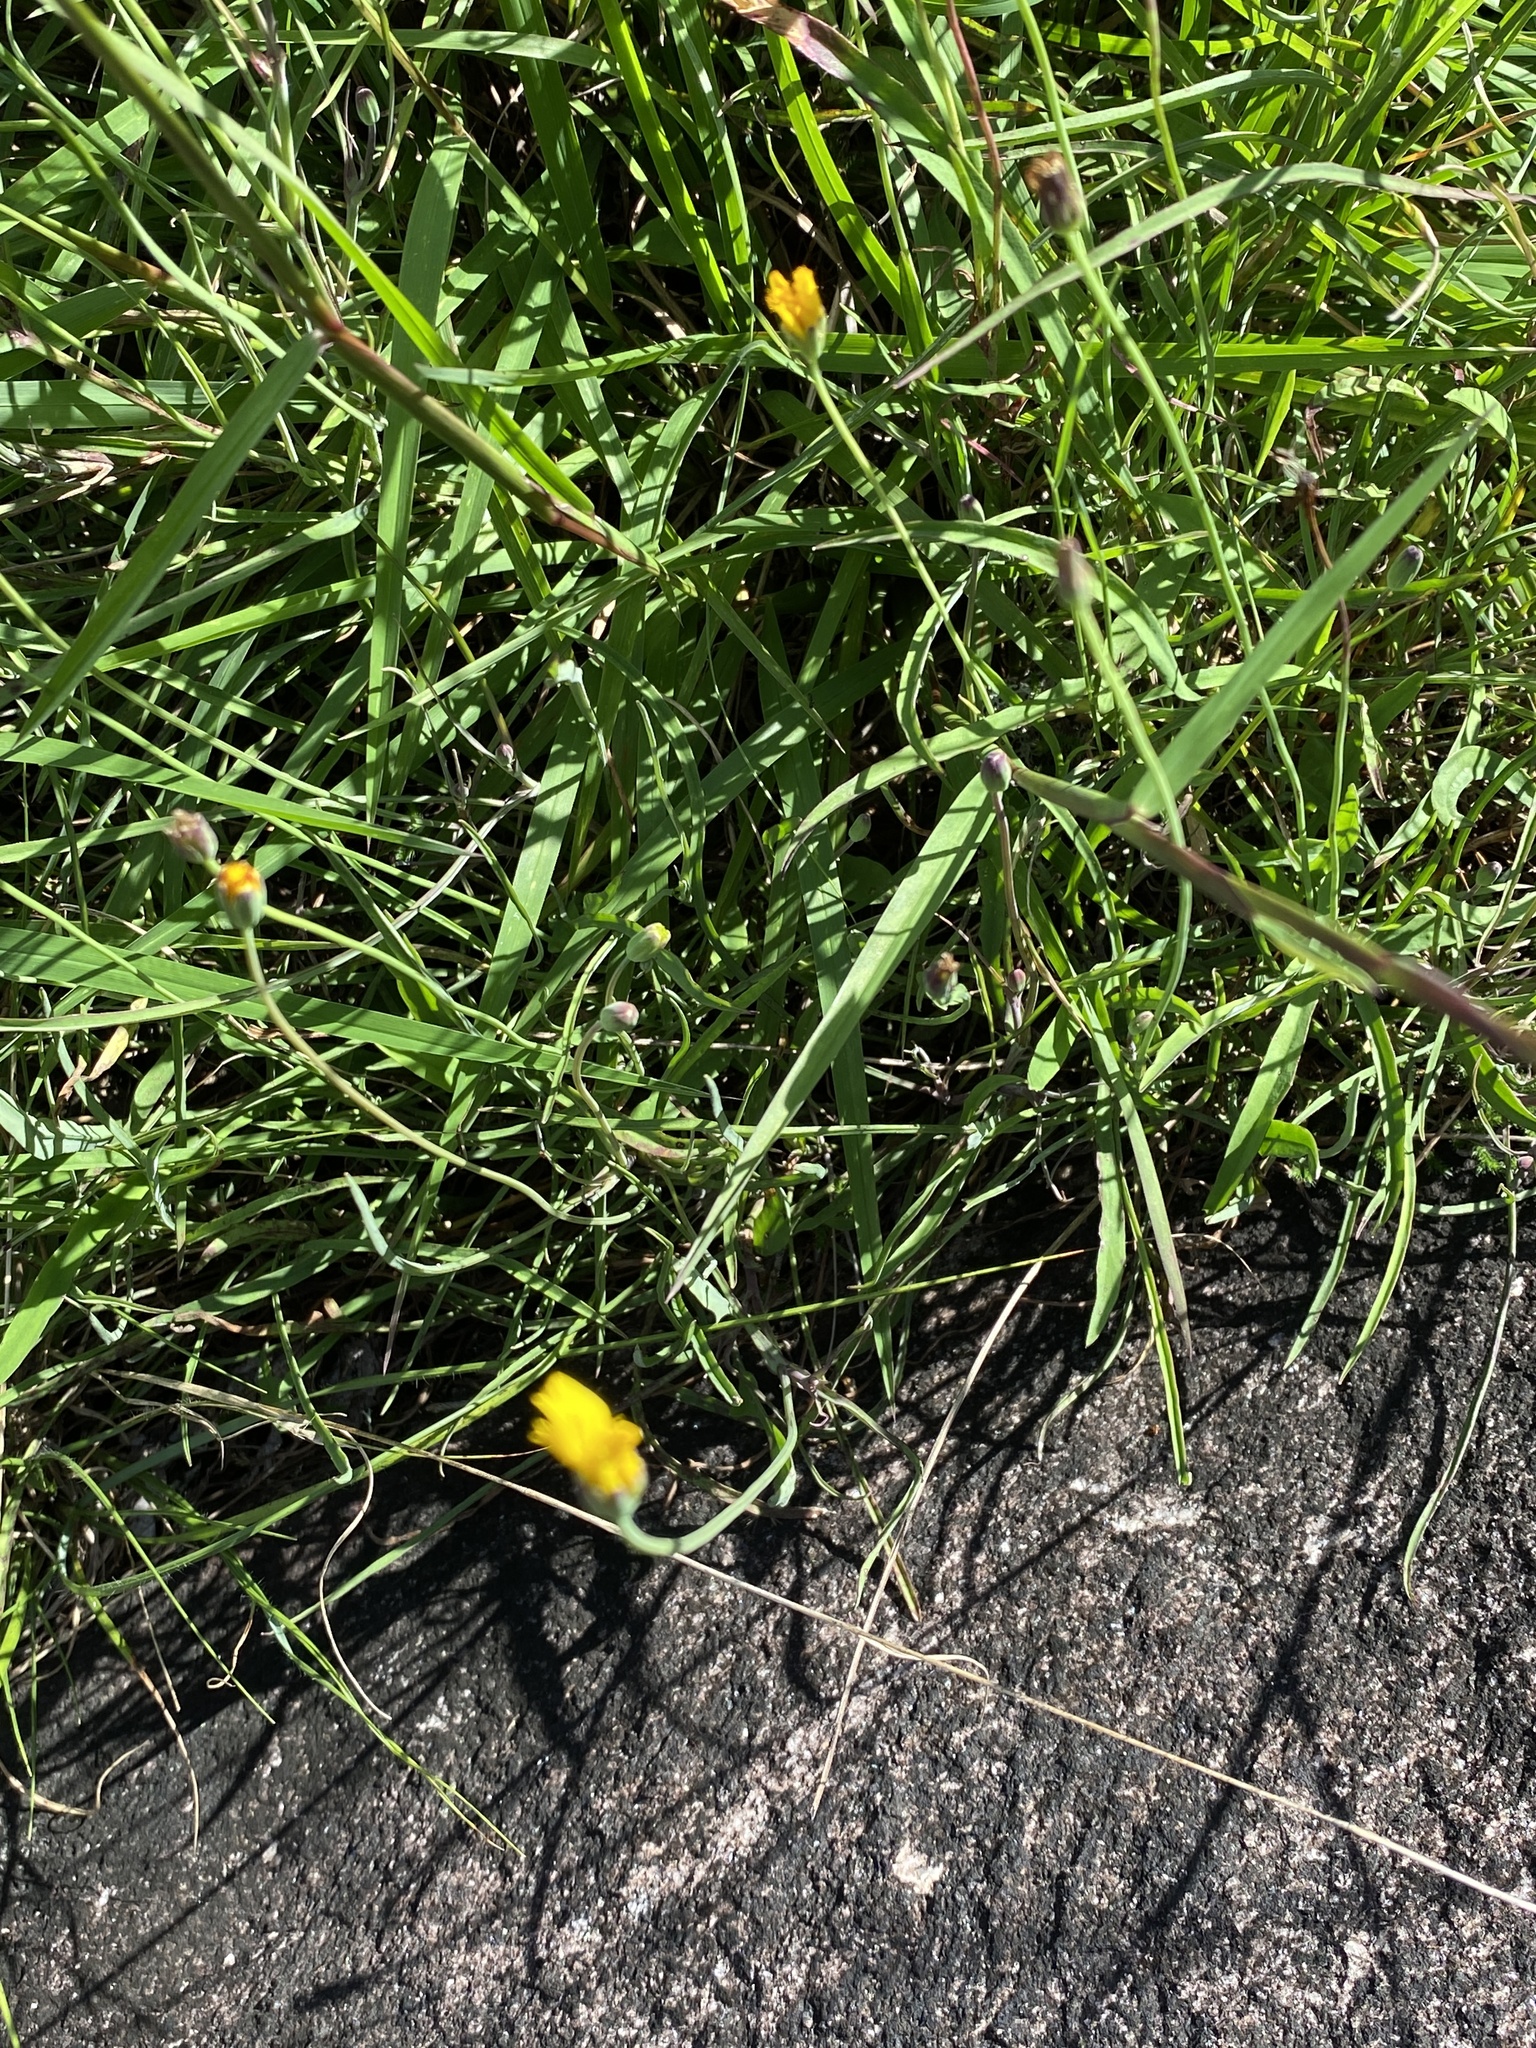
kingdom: Plantae
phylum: Tracheophyta
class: Magnoliopsida
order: Asterales
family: Asteraceae
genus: Krigia
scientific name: Krigia montana
